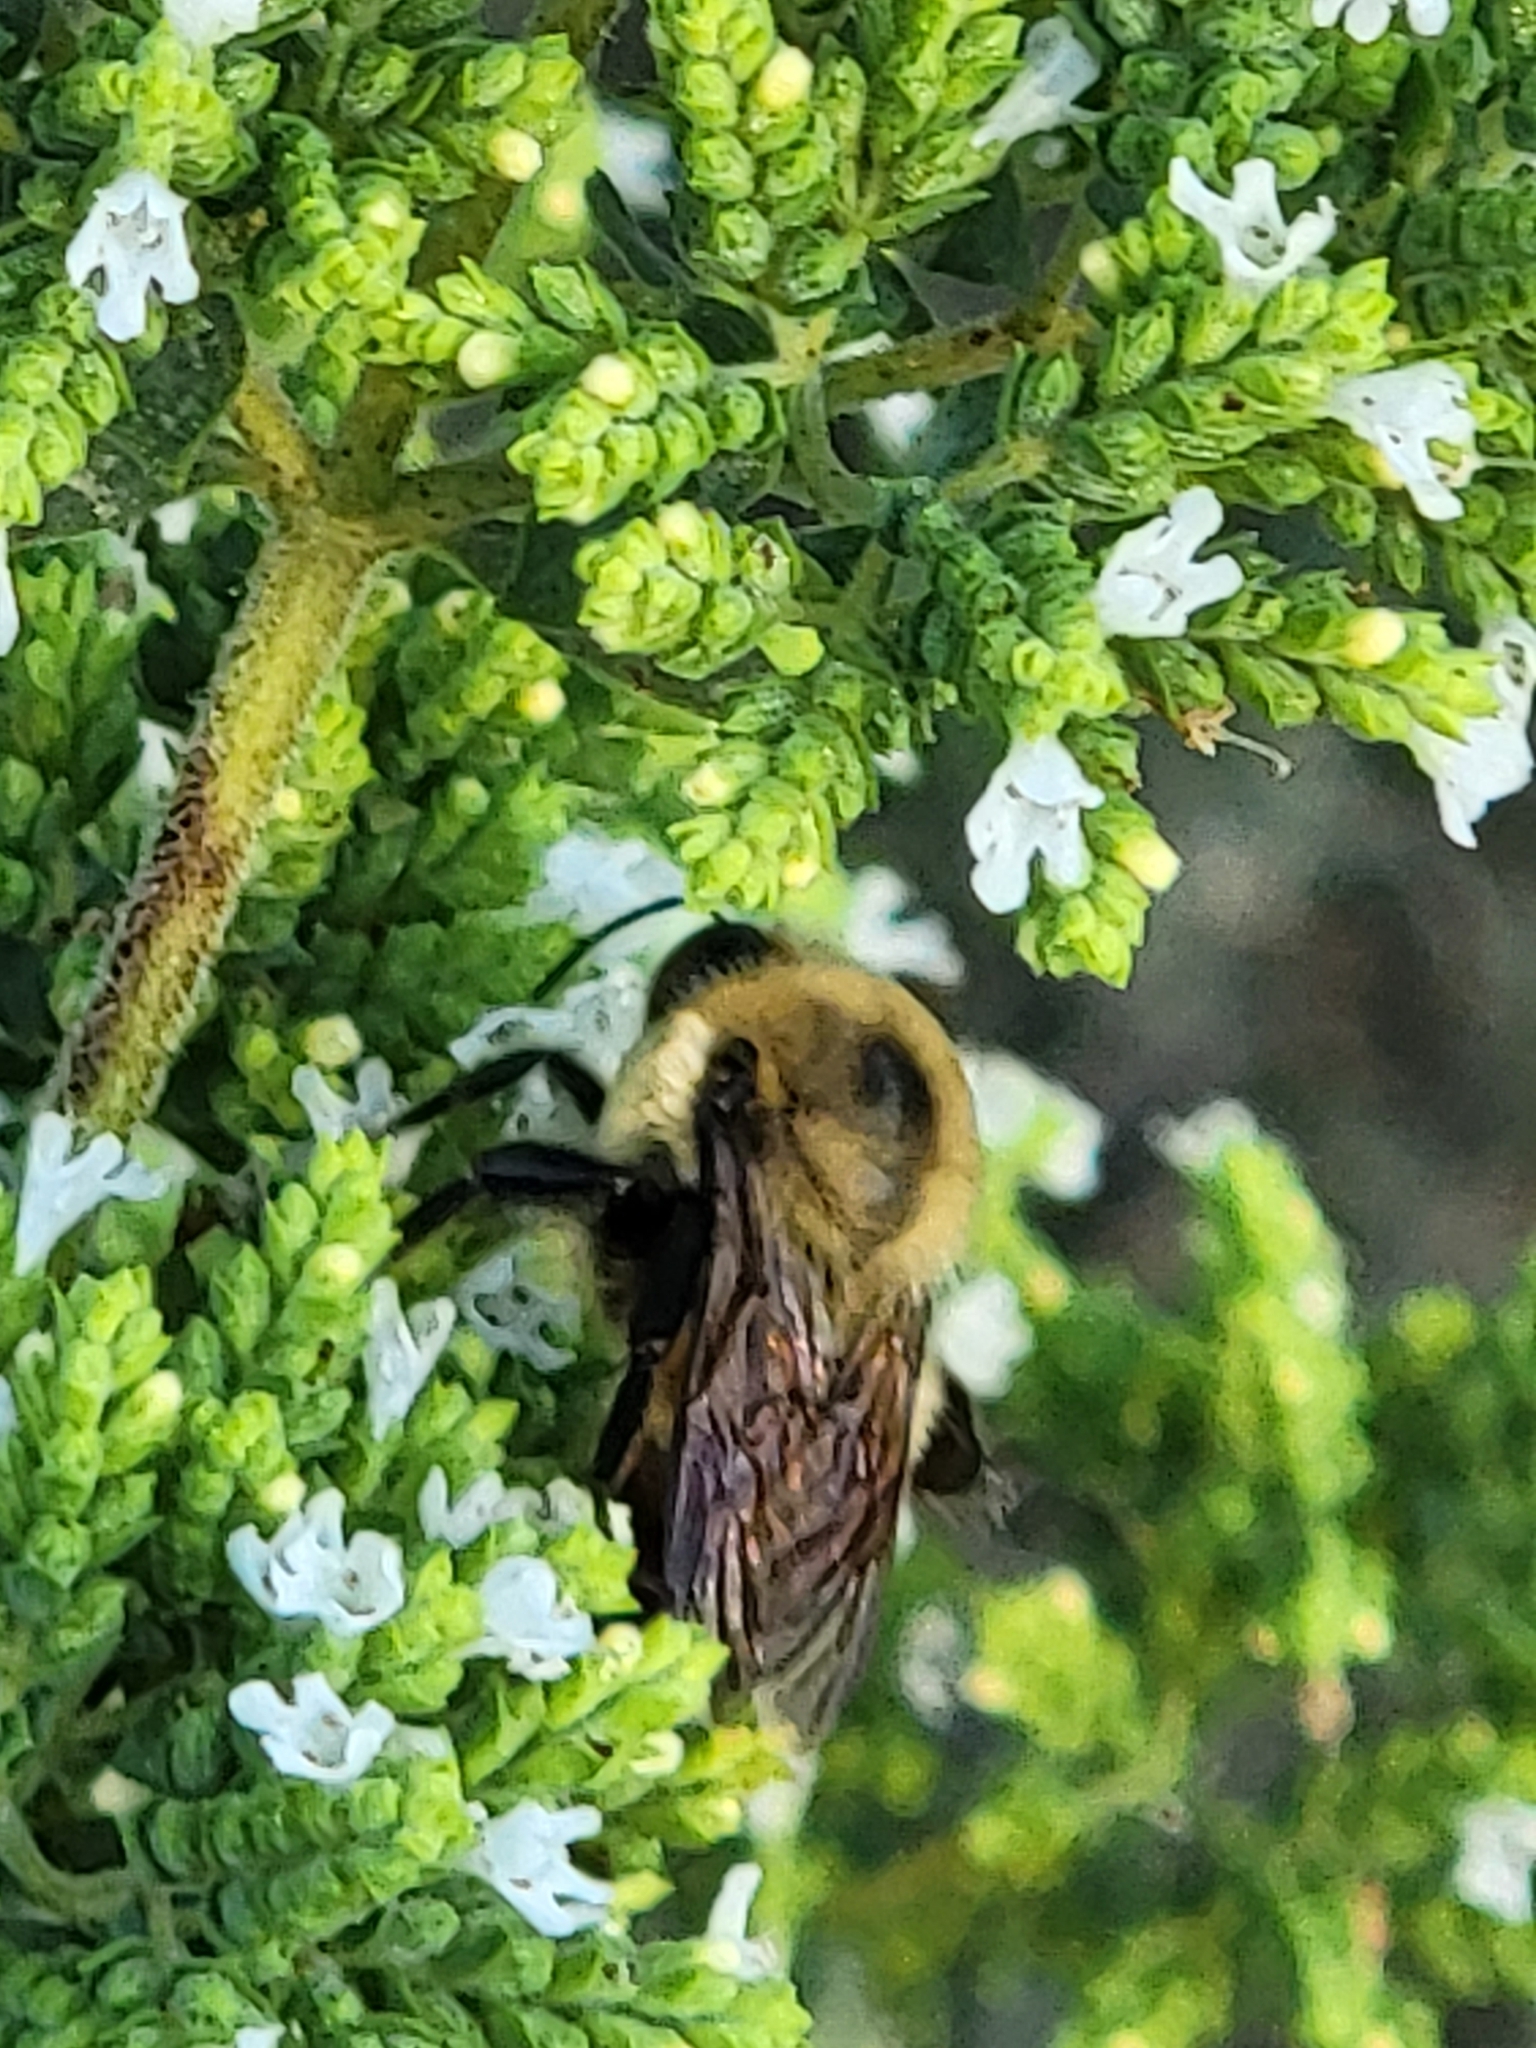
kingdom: Animalia
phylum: Arthropoda
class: Insecta
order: Hymenoptera
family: Apidae
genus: Bombus
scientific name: Bombus griseocollis
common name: Brown-belted bumble bee
